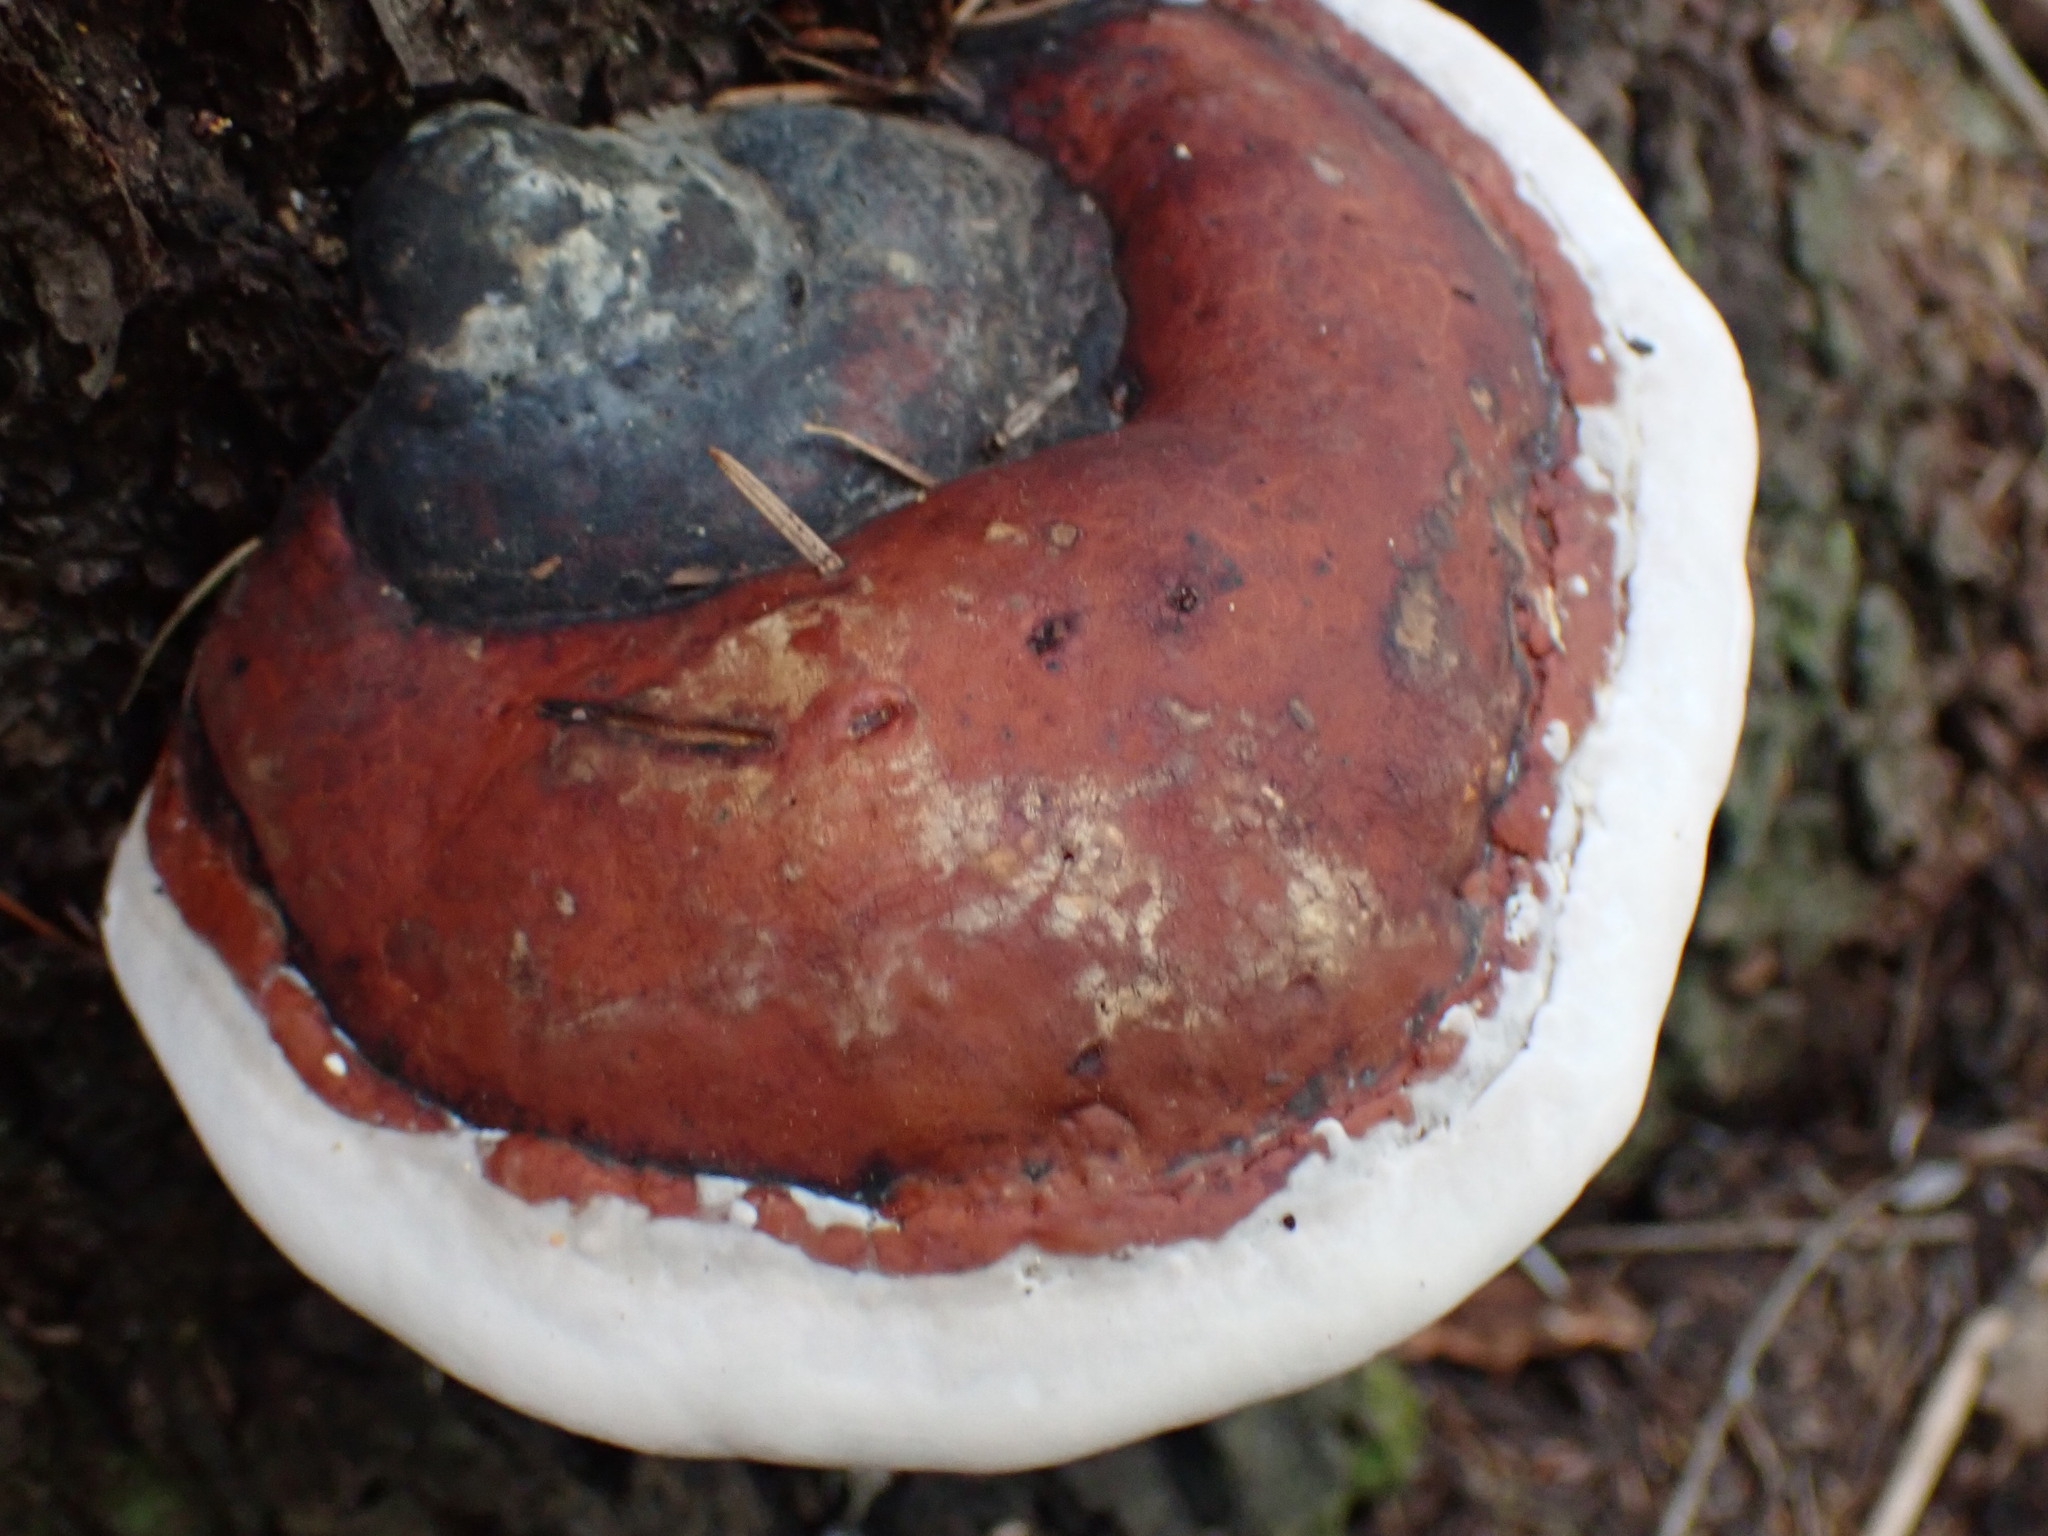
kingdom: Fungi
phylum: Basidiomycota
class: Agaricomycetes
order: Polyporales
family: Fomitopsidaceae
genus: Fomitopsis
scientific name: Fomitopsis mounceae
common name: Northern red belt
